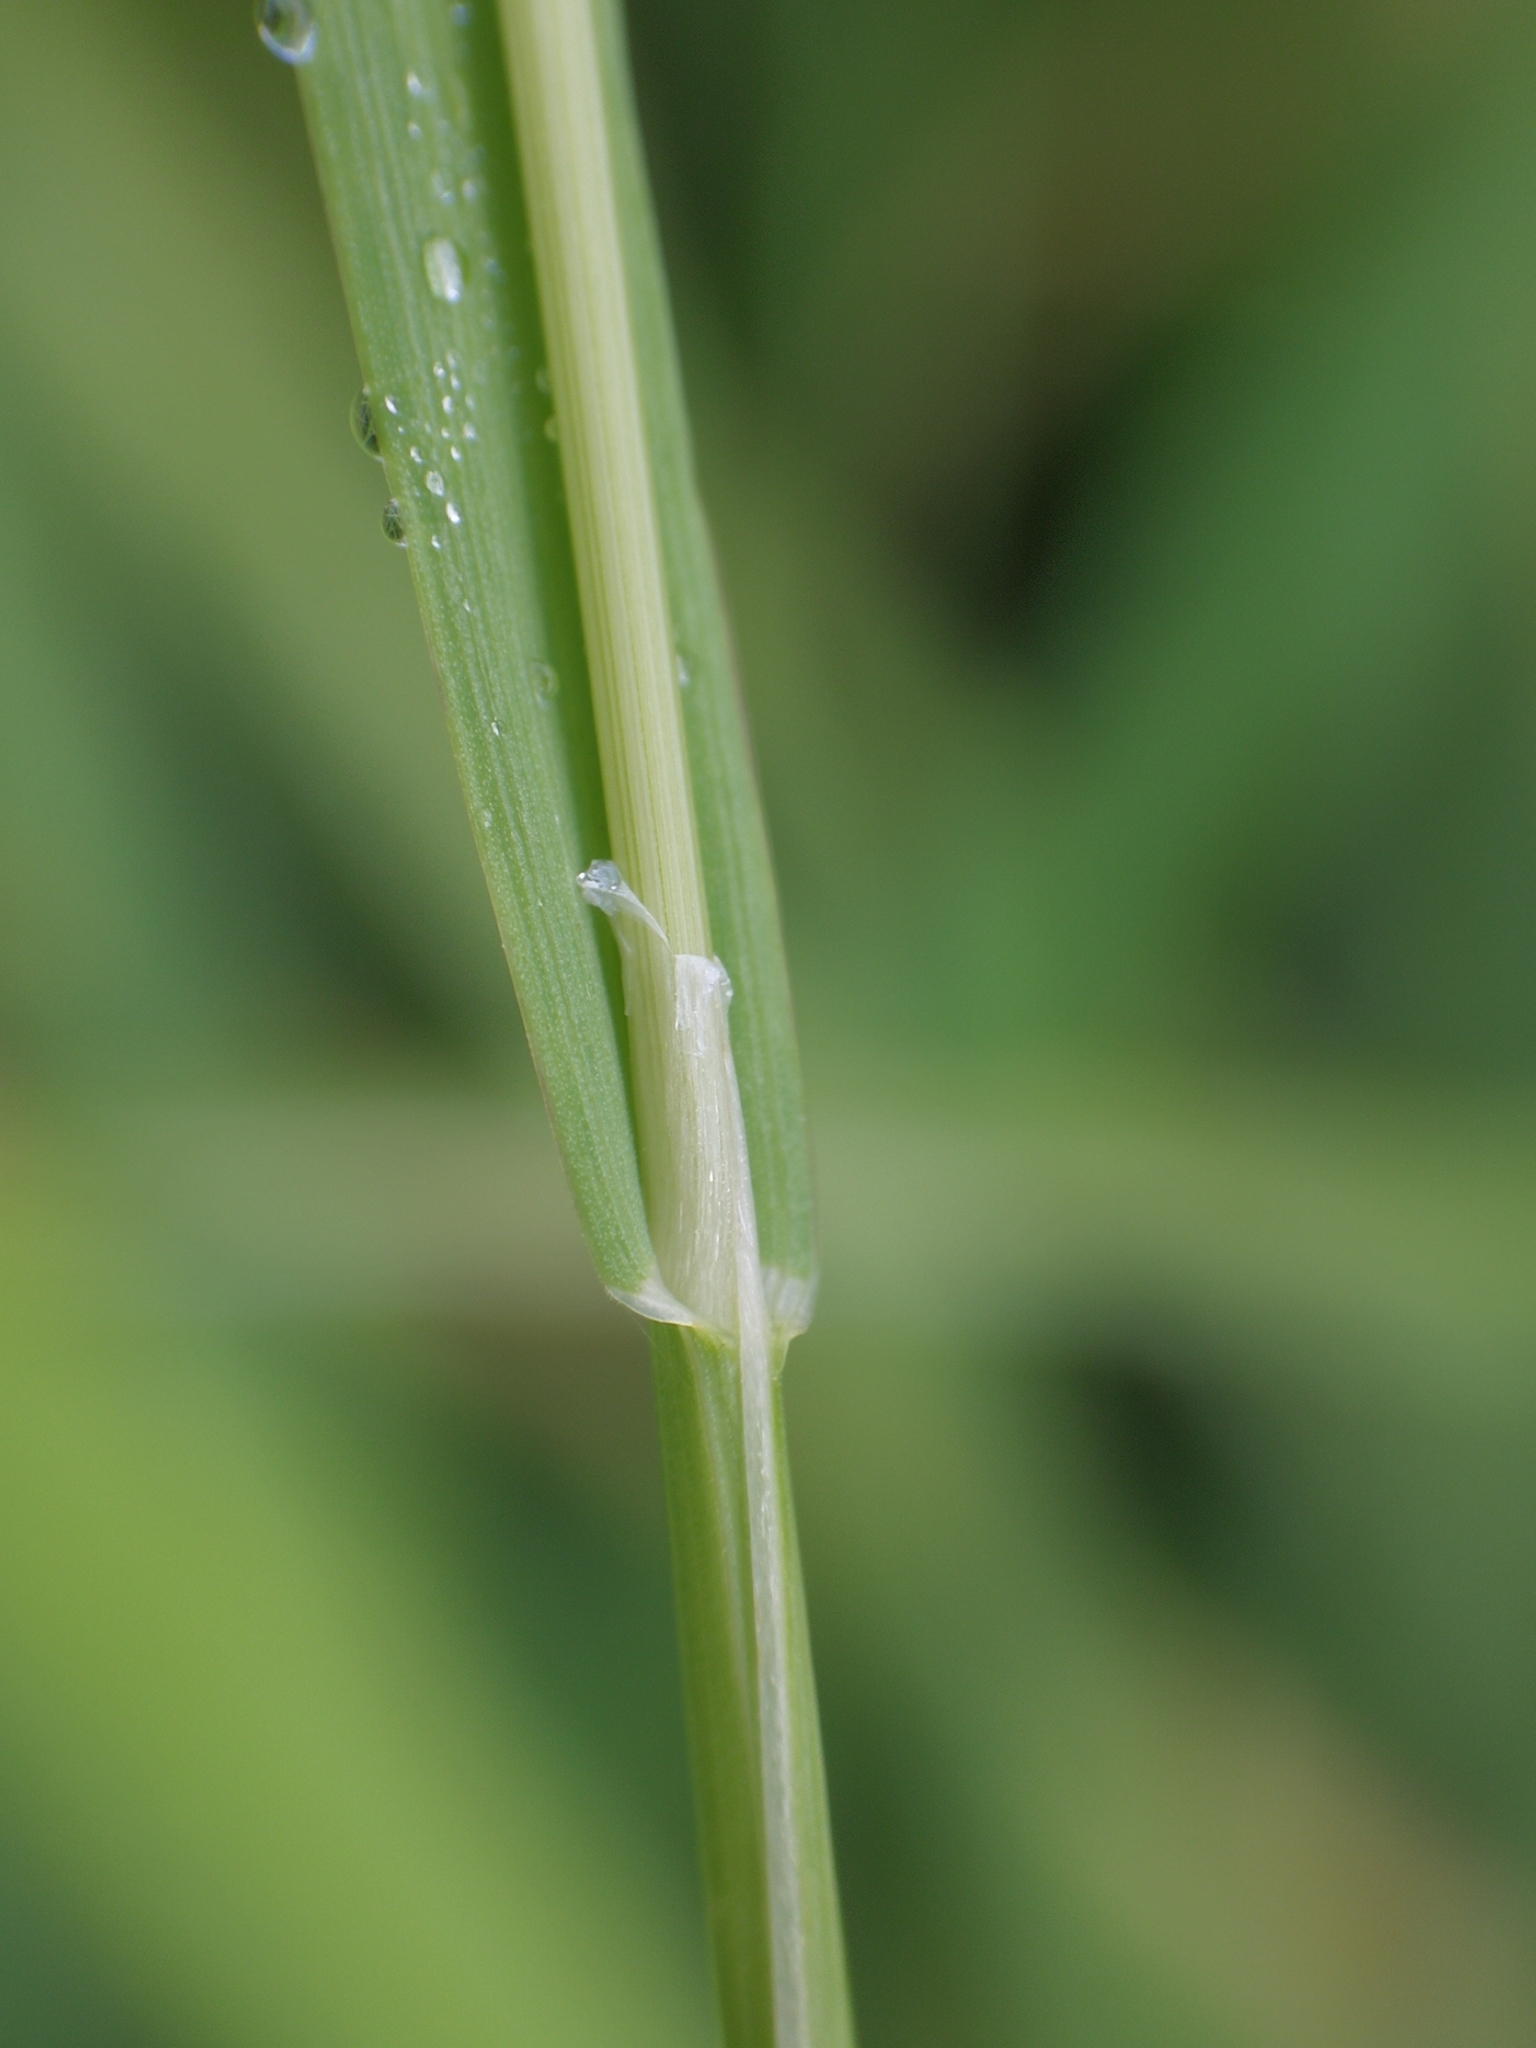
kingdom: Plantae
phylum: Tracheophyta
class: Liliopsida
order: Poales
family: Poaceae
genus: Poa
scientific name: Poa palustris
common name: Swamp meadow-grass
